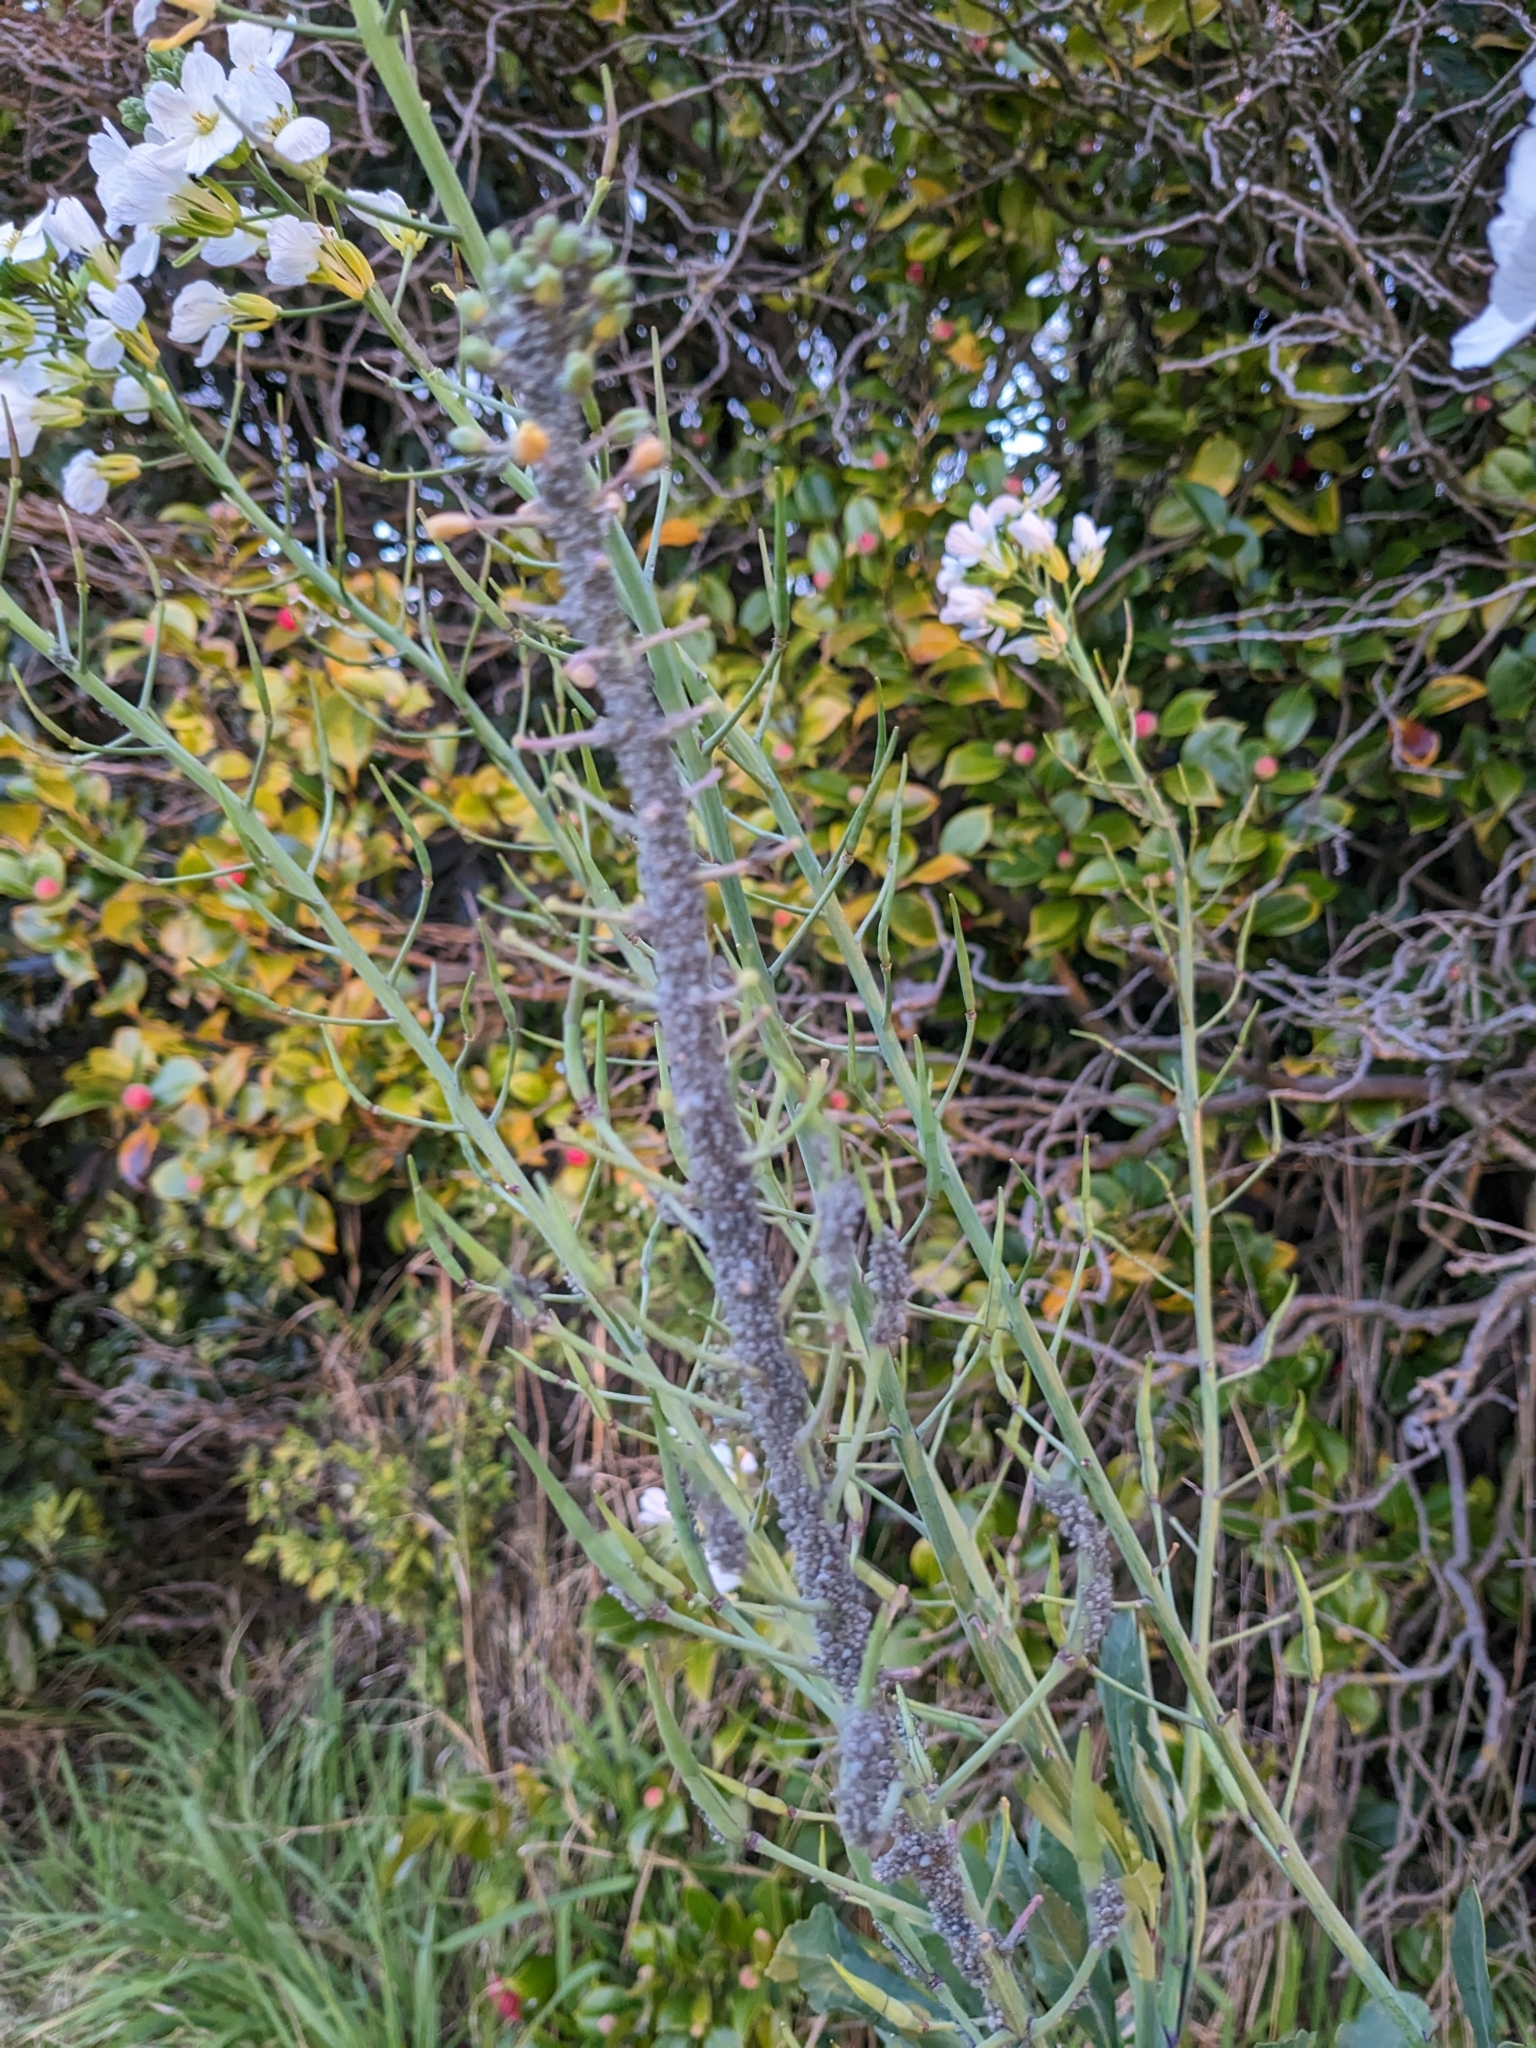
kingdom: Animalia
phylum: Arthropoda
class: Insecta
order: Hemiptera
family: Aphididae
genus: Brevicoryne
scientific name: Brevicoryne brassicae
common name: Cabbage aphid
